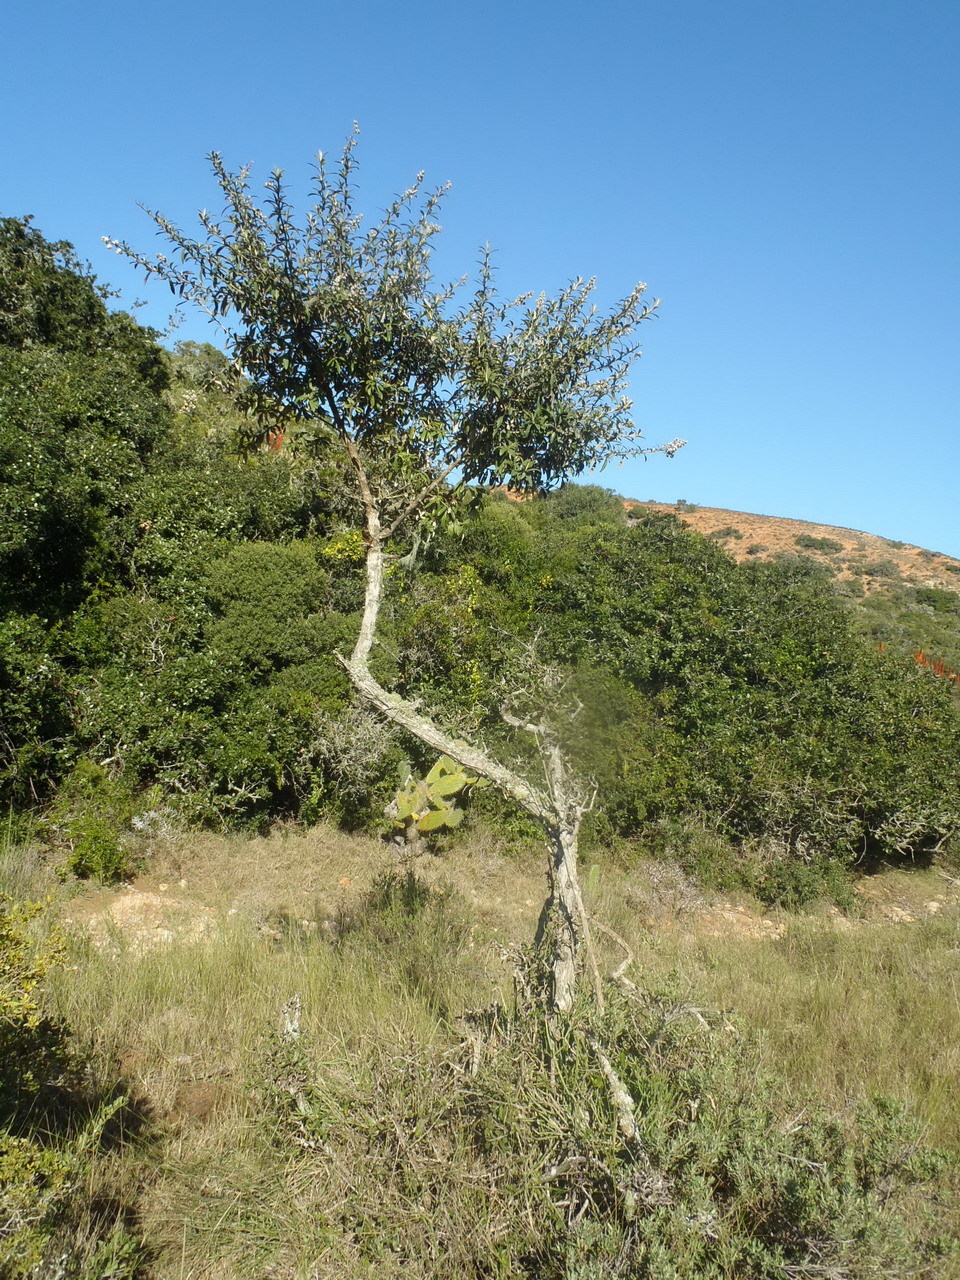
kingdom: Plantae
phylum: Tracheophyta
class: Magnoliopsida
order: Asterales
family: Asteraceae
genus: Tarchonanthus
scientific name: Tarchonanthus littoralis
